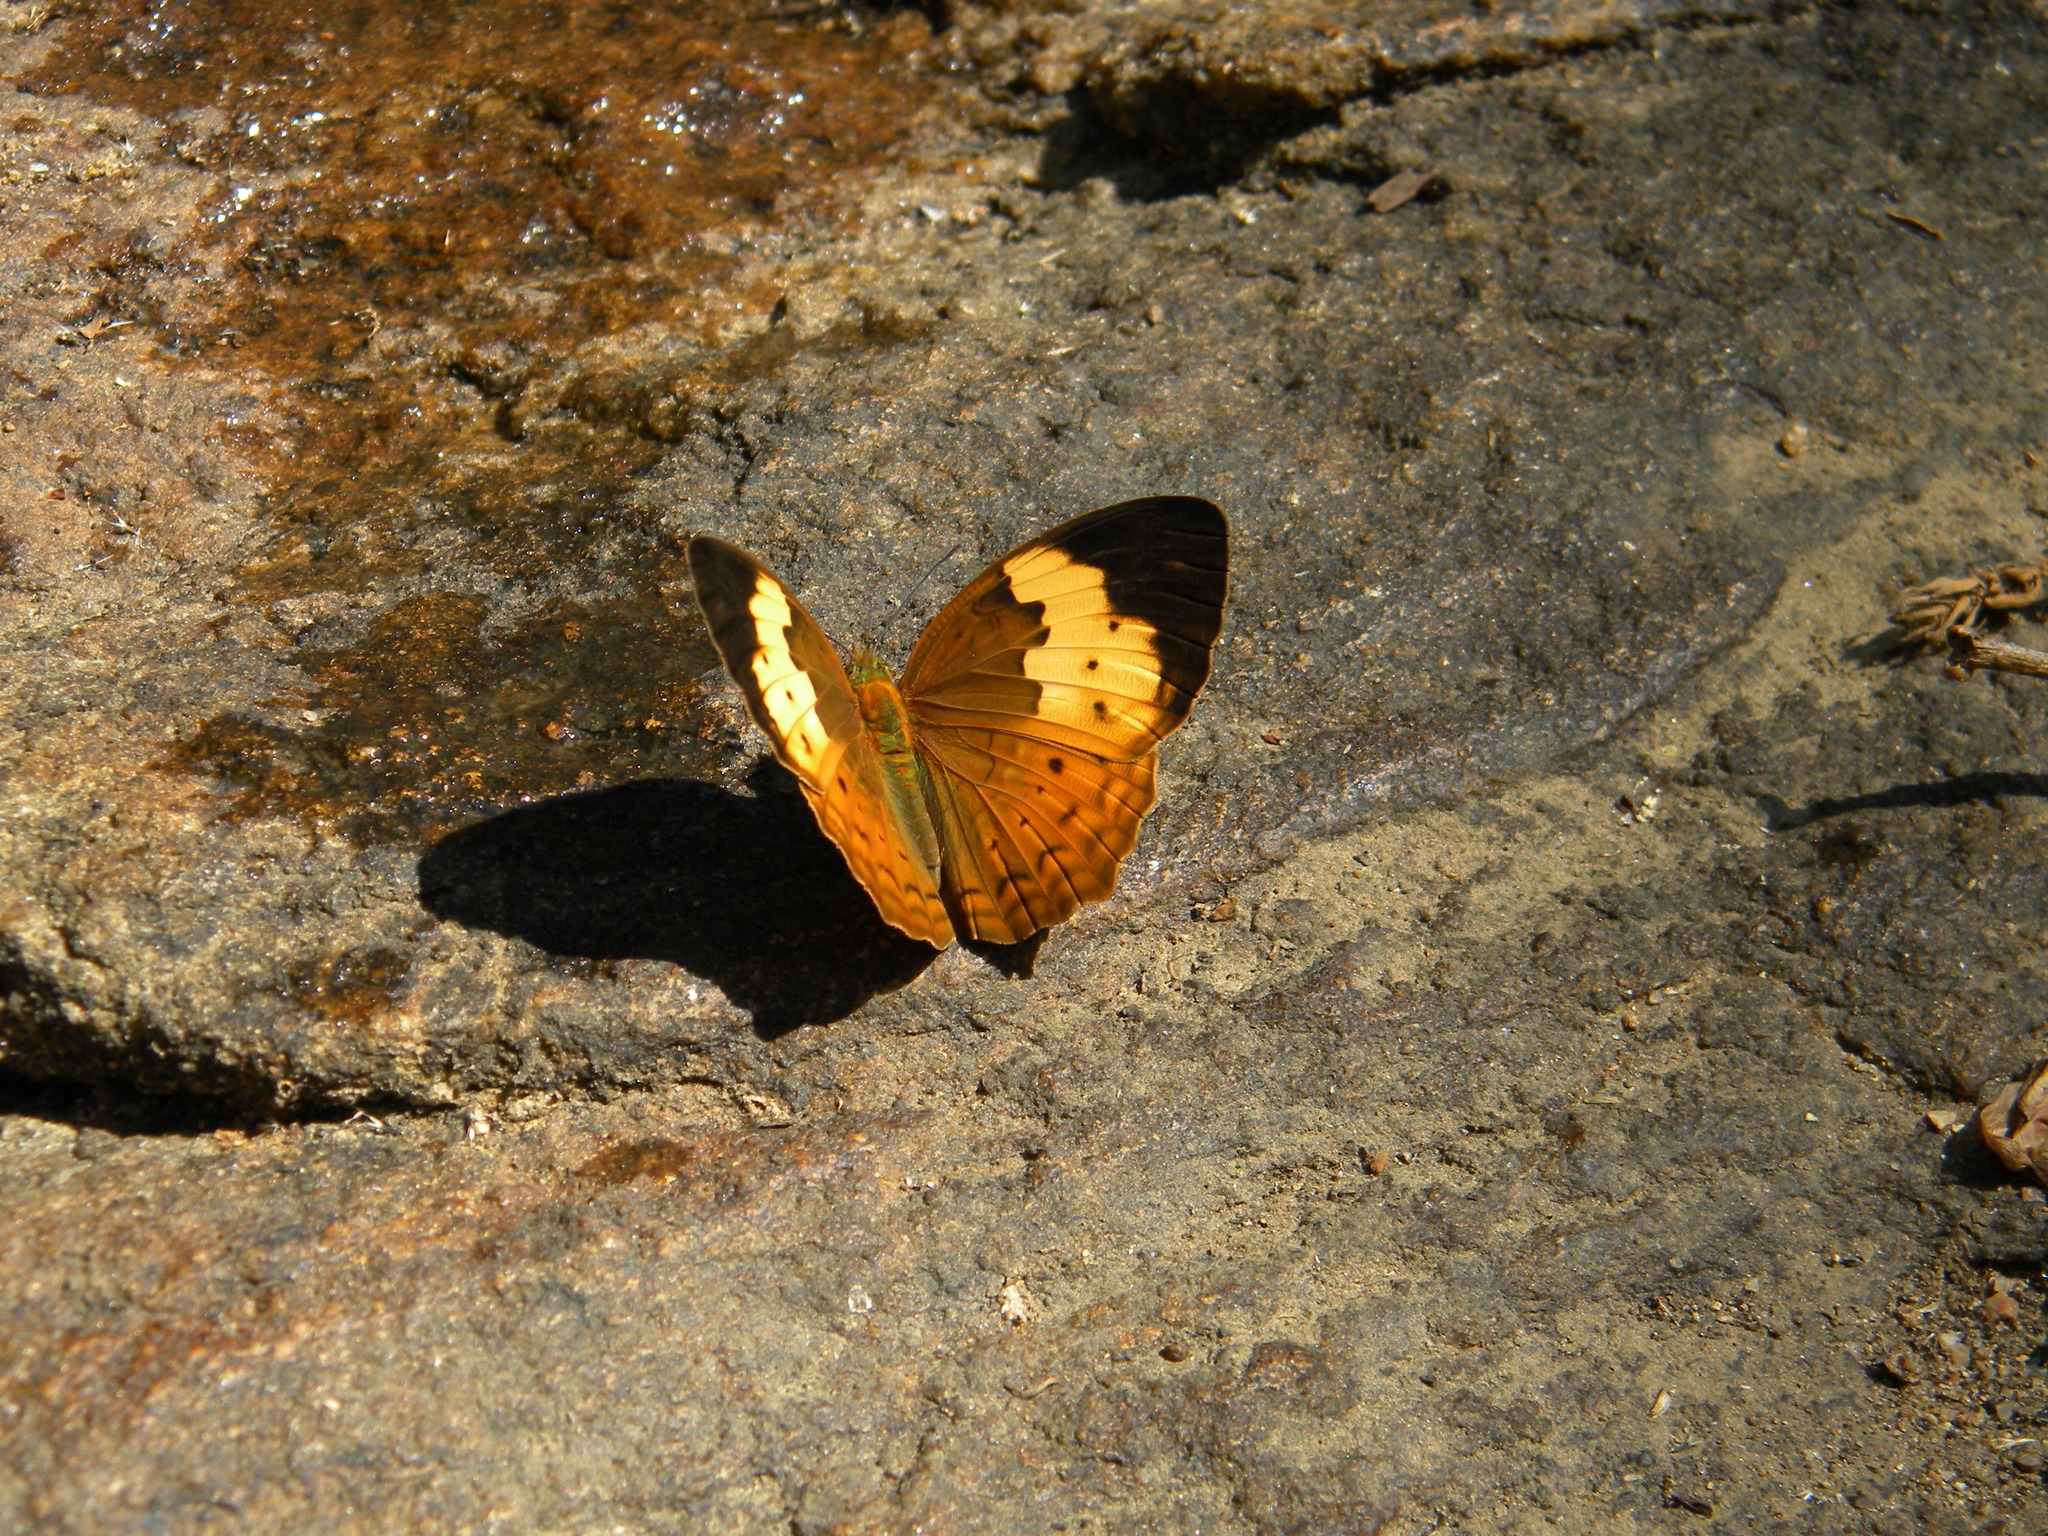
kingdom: Animalia
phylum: Arthropoda
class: Insecta
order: Lepidoptera
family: Nymphalidae
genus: Cupha
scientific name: Cupha erymanthis
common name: Rustic
